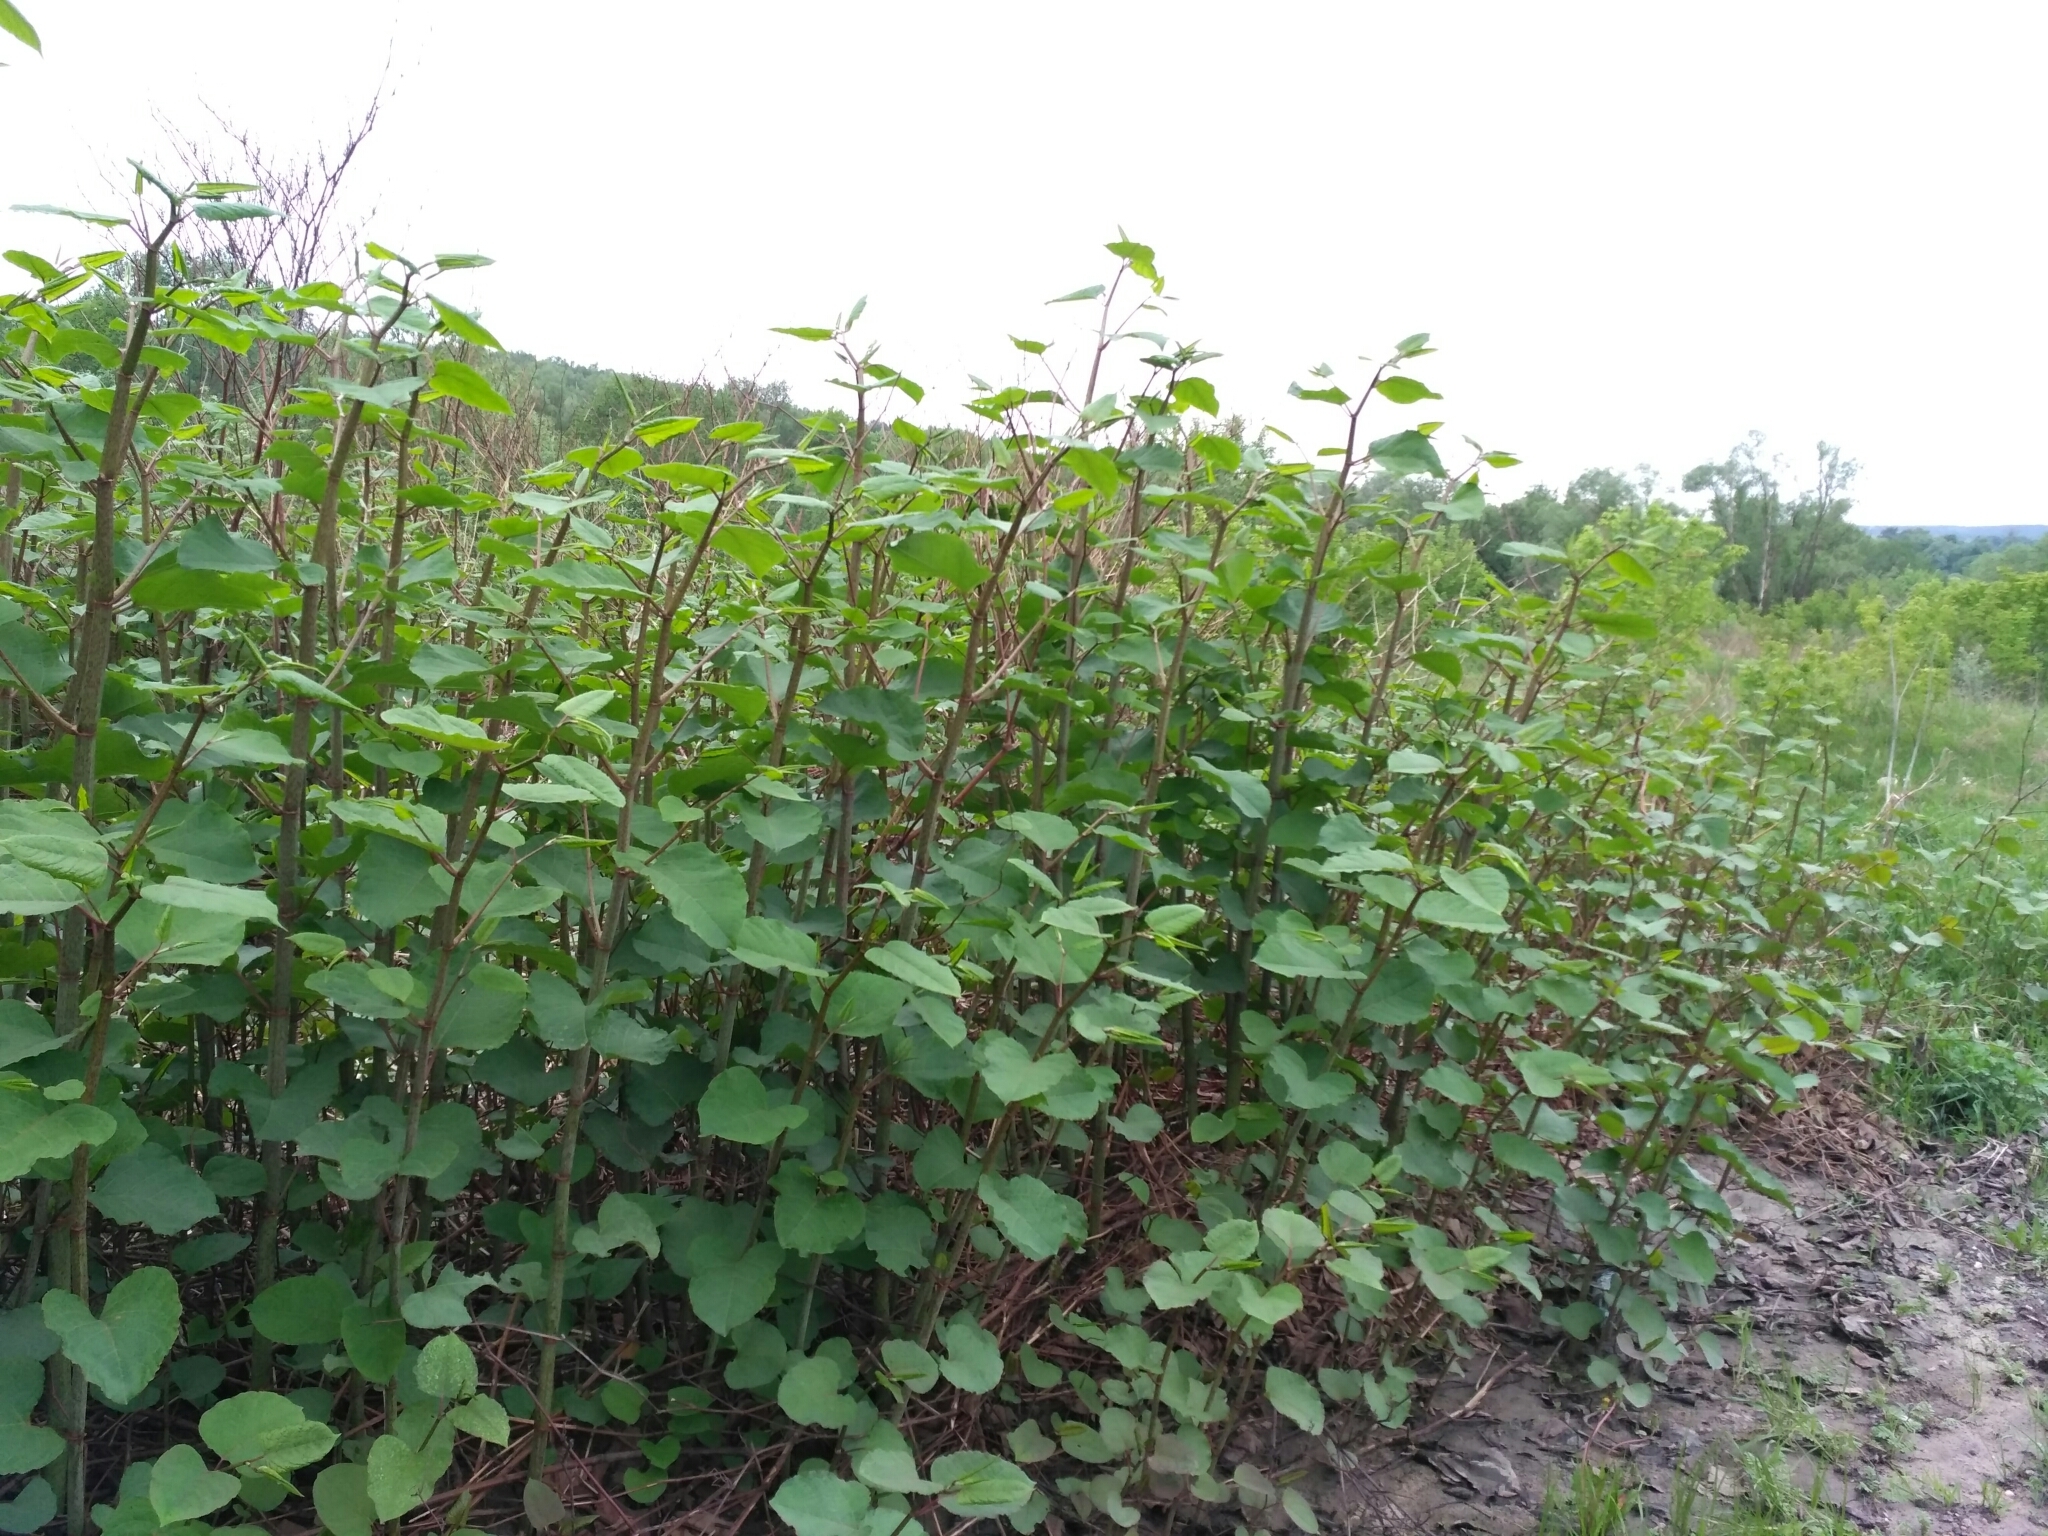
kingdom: Plantae
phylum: Tracheophyta
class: Magnoliopsida
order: Caryophyllales
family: Polygonaceae
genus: Reynoutria
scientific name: Reynoutria bohemica
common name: Bohemian knotweed
